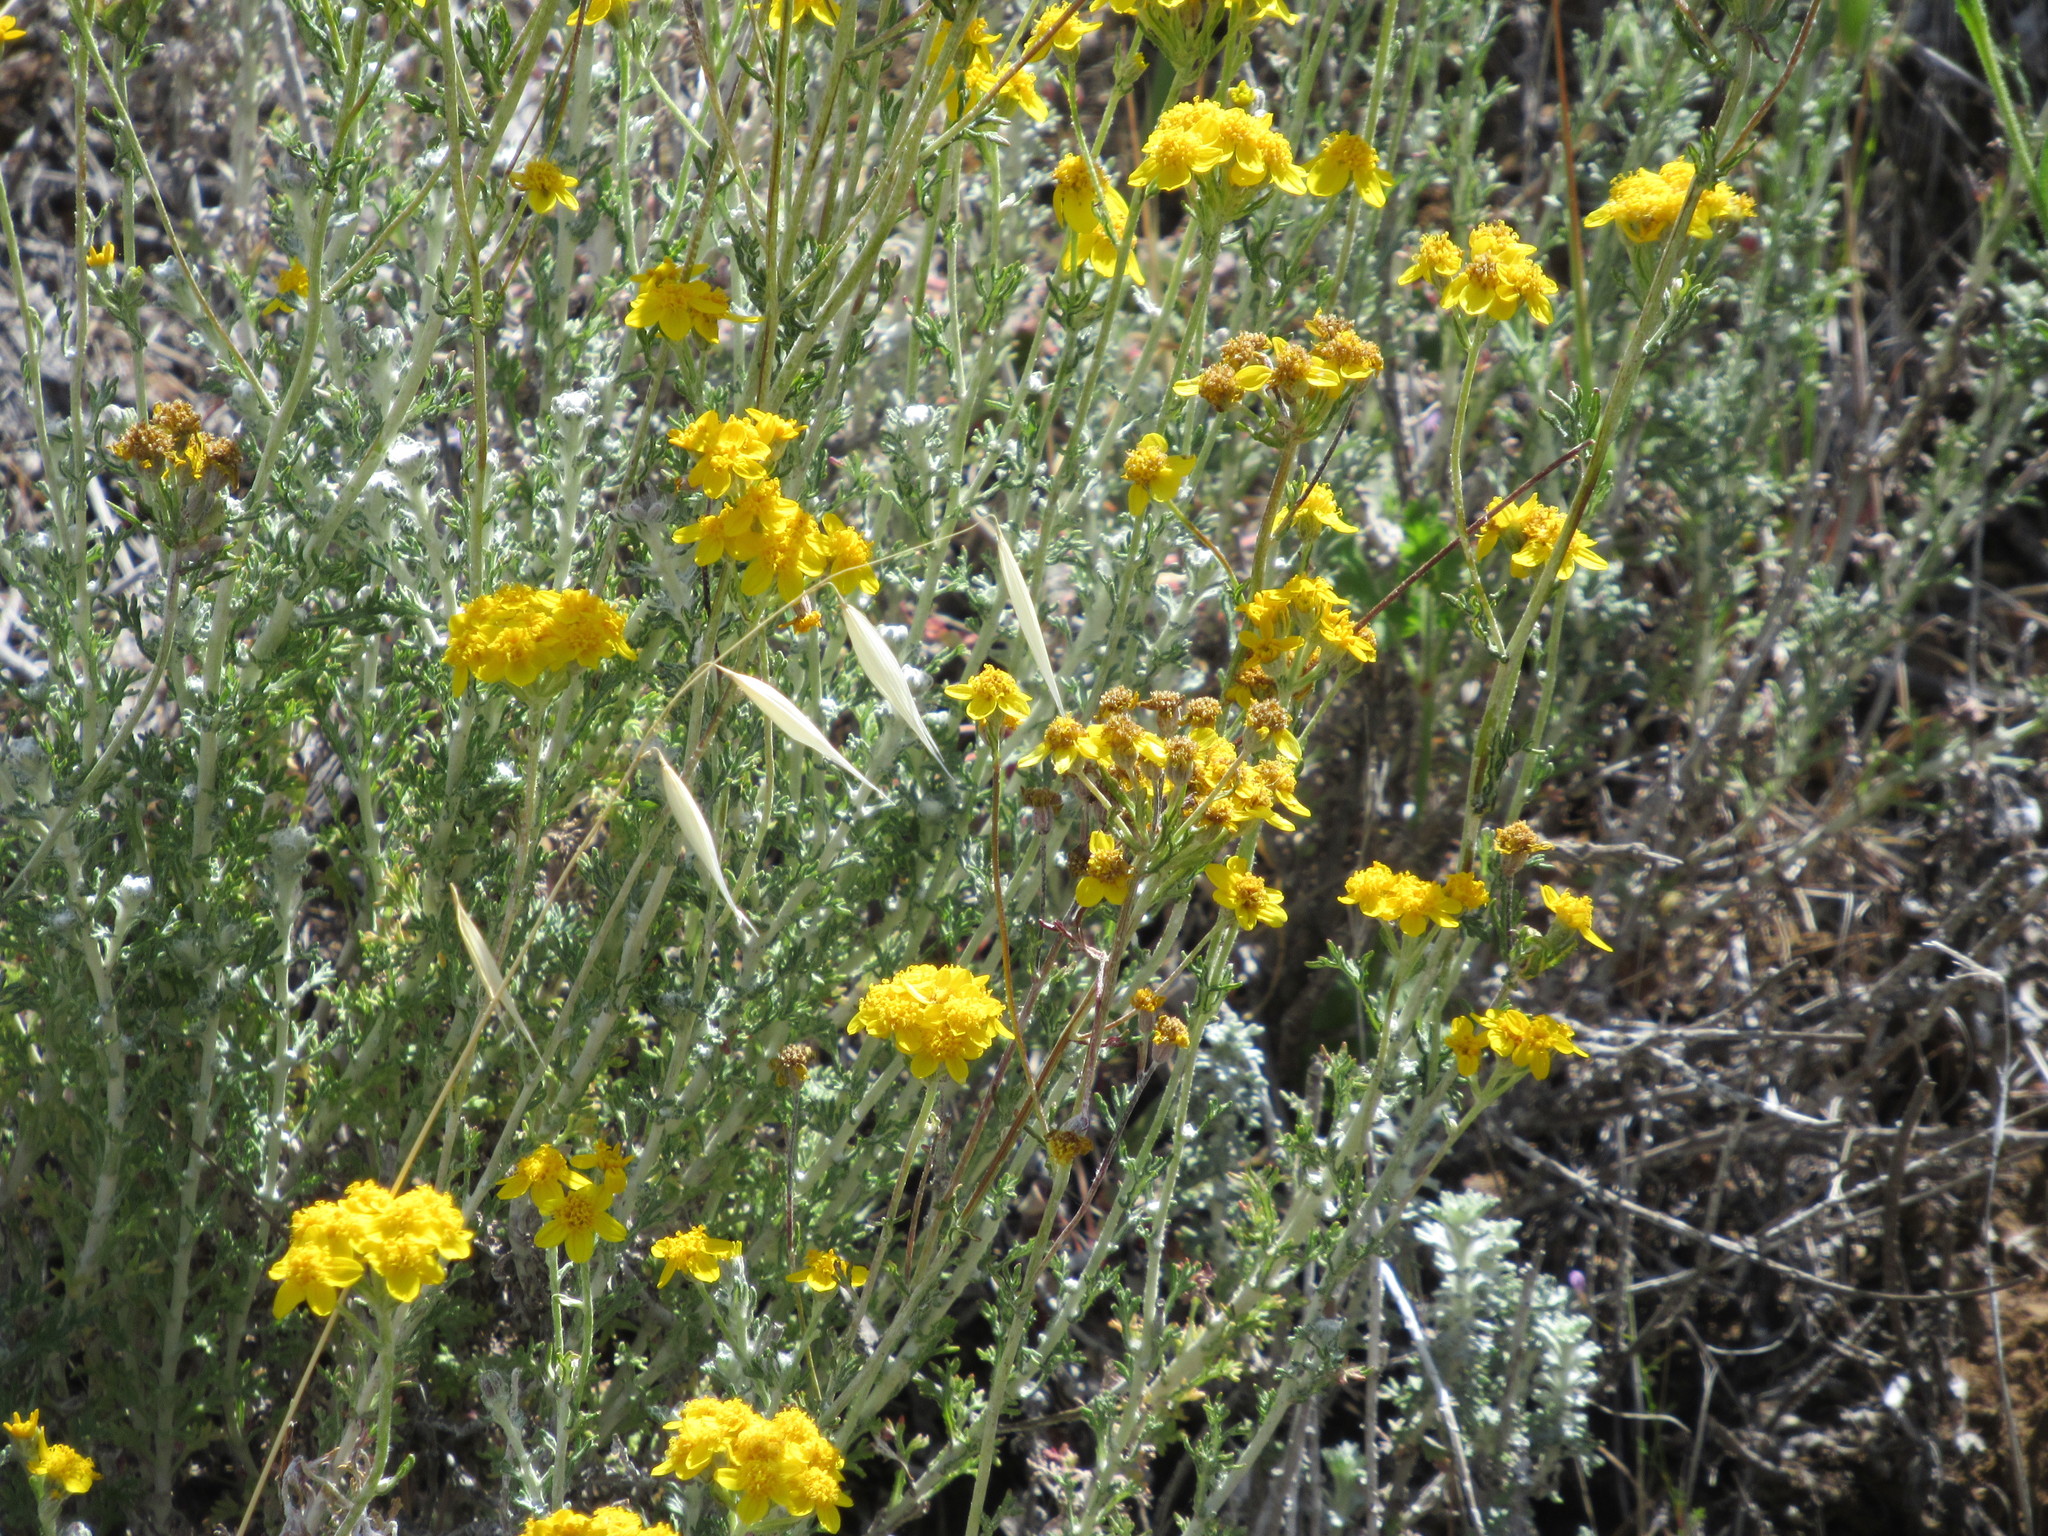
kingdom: Plantae
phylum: Tracheophyta
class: Magnoliopsida
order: Asterales
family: Asteraceae
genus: Eriophyllum
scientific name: Eriophyllum confertiflorum
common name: Golden-yarrow
